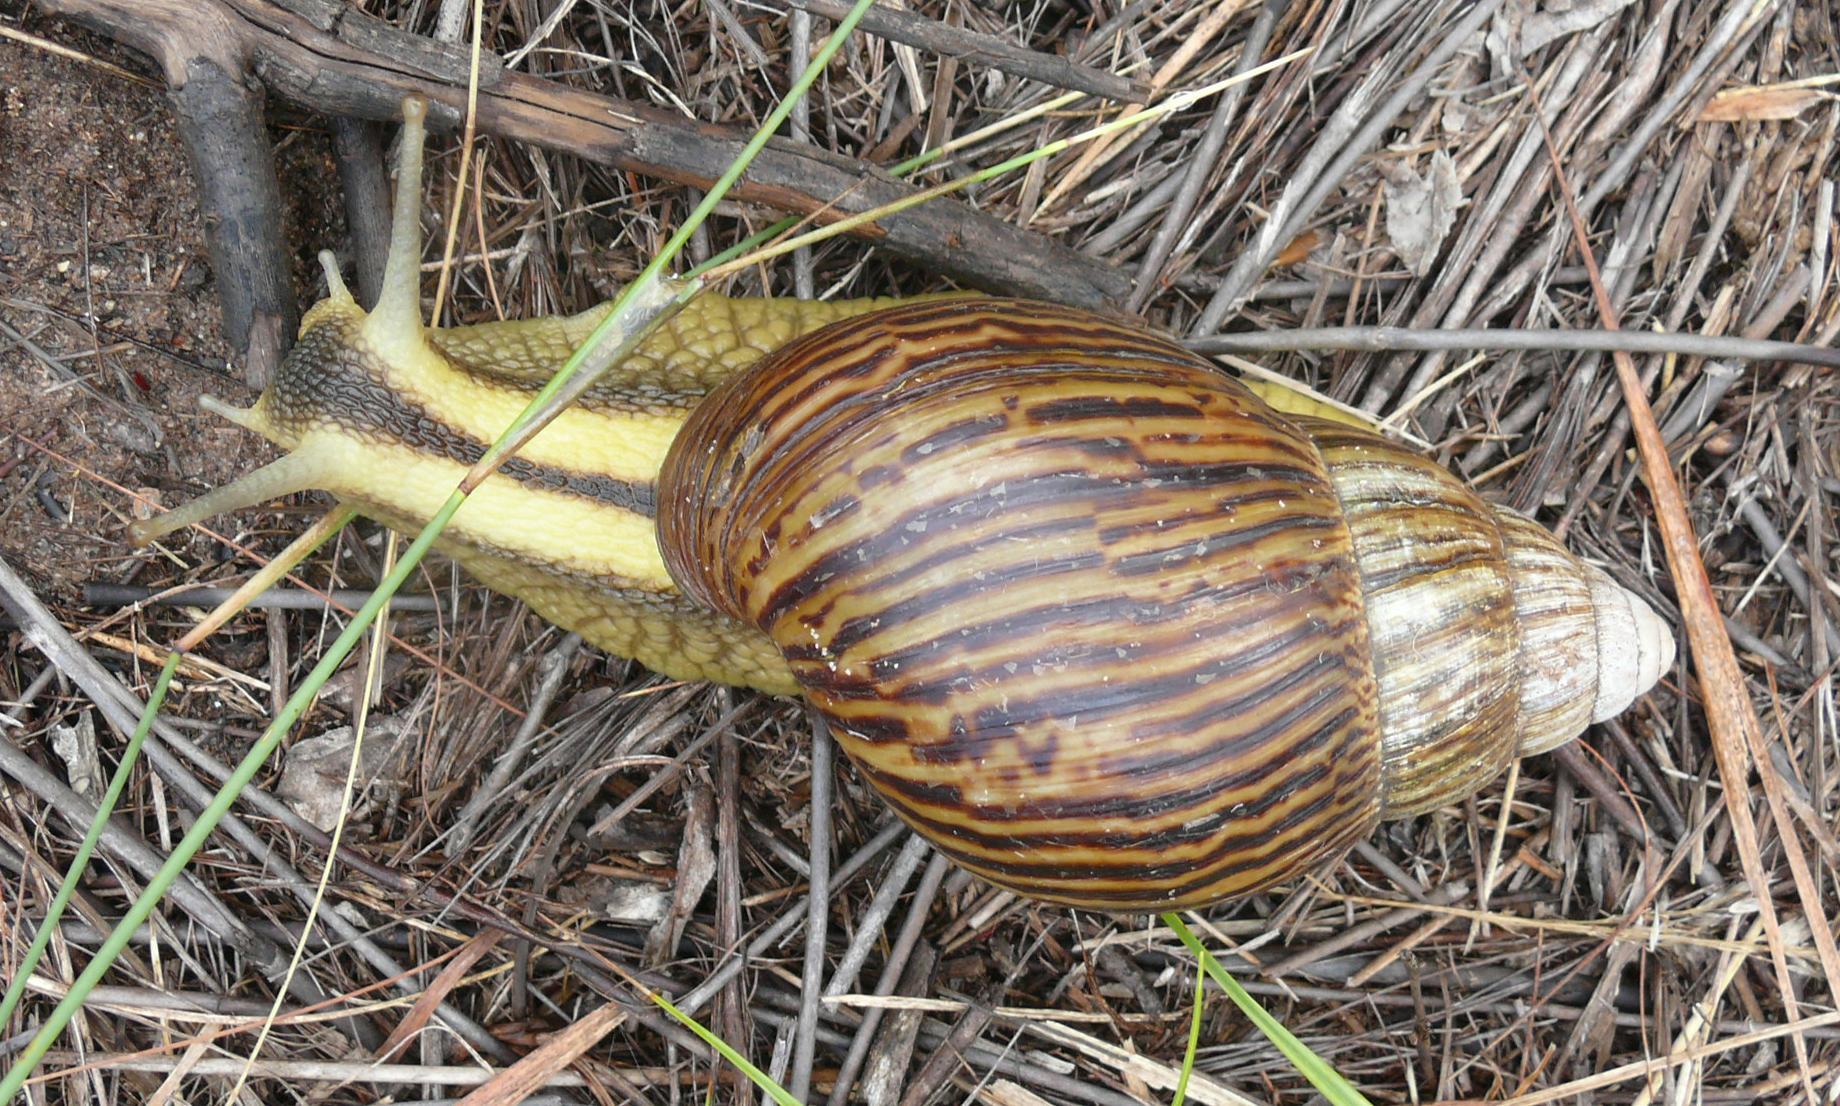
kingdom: Animalia
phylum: Mollusca
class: Gastropoda
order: Stylommatophora
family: Achatinidae
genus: Cochlitoma
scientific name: Cochlitoma zebra
